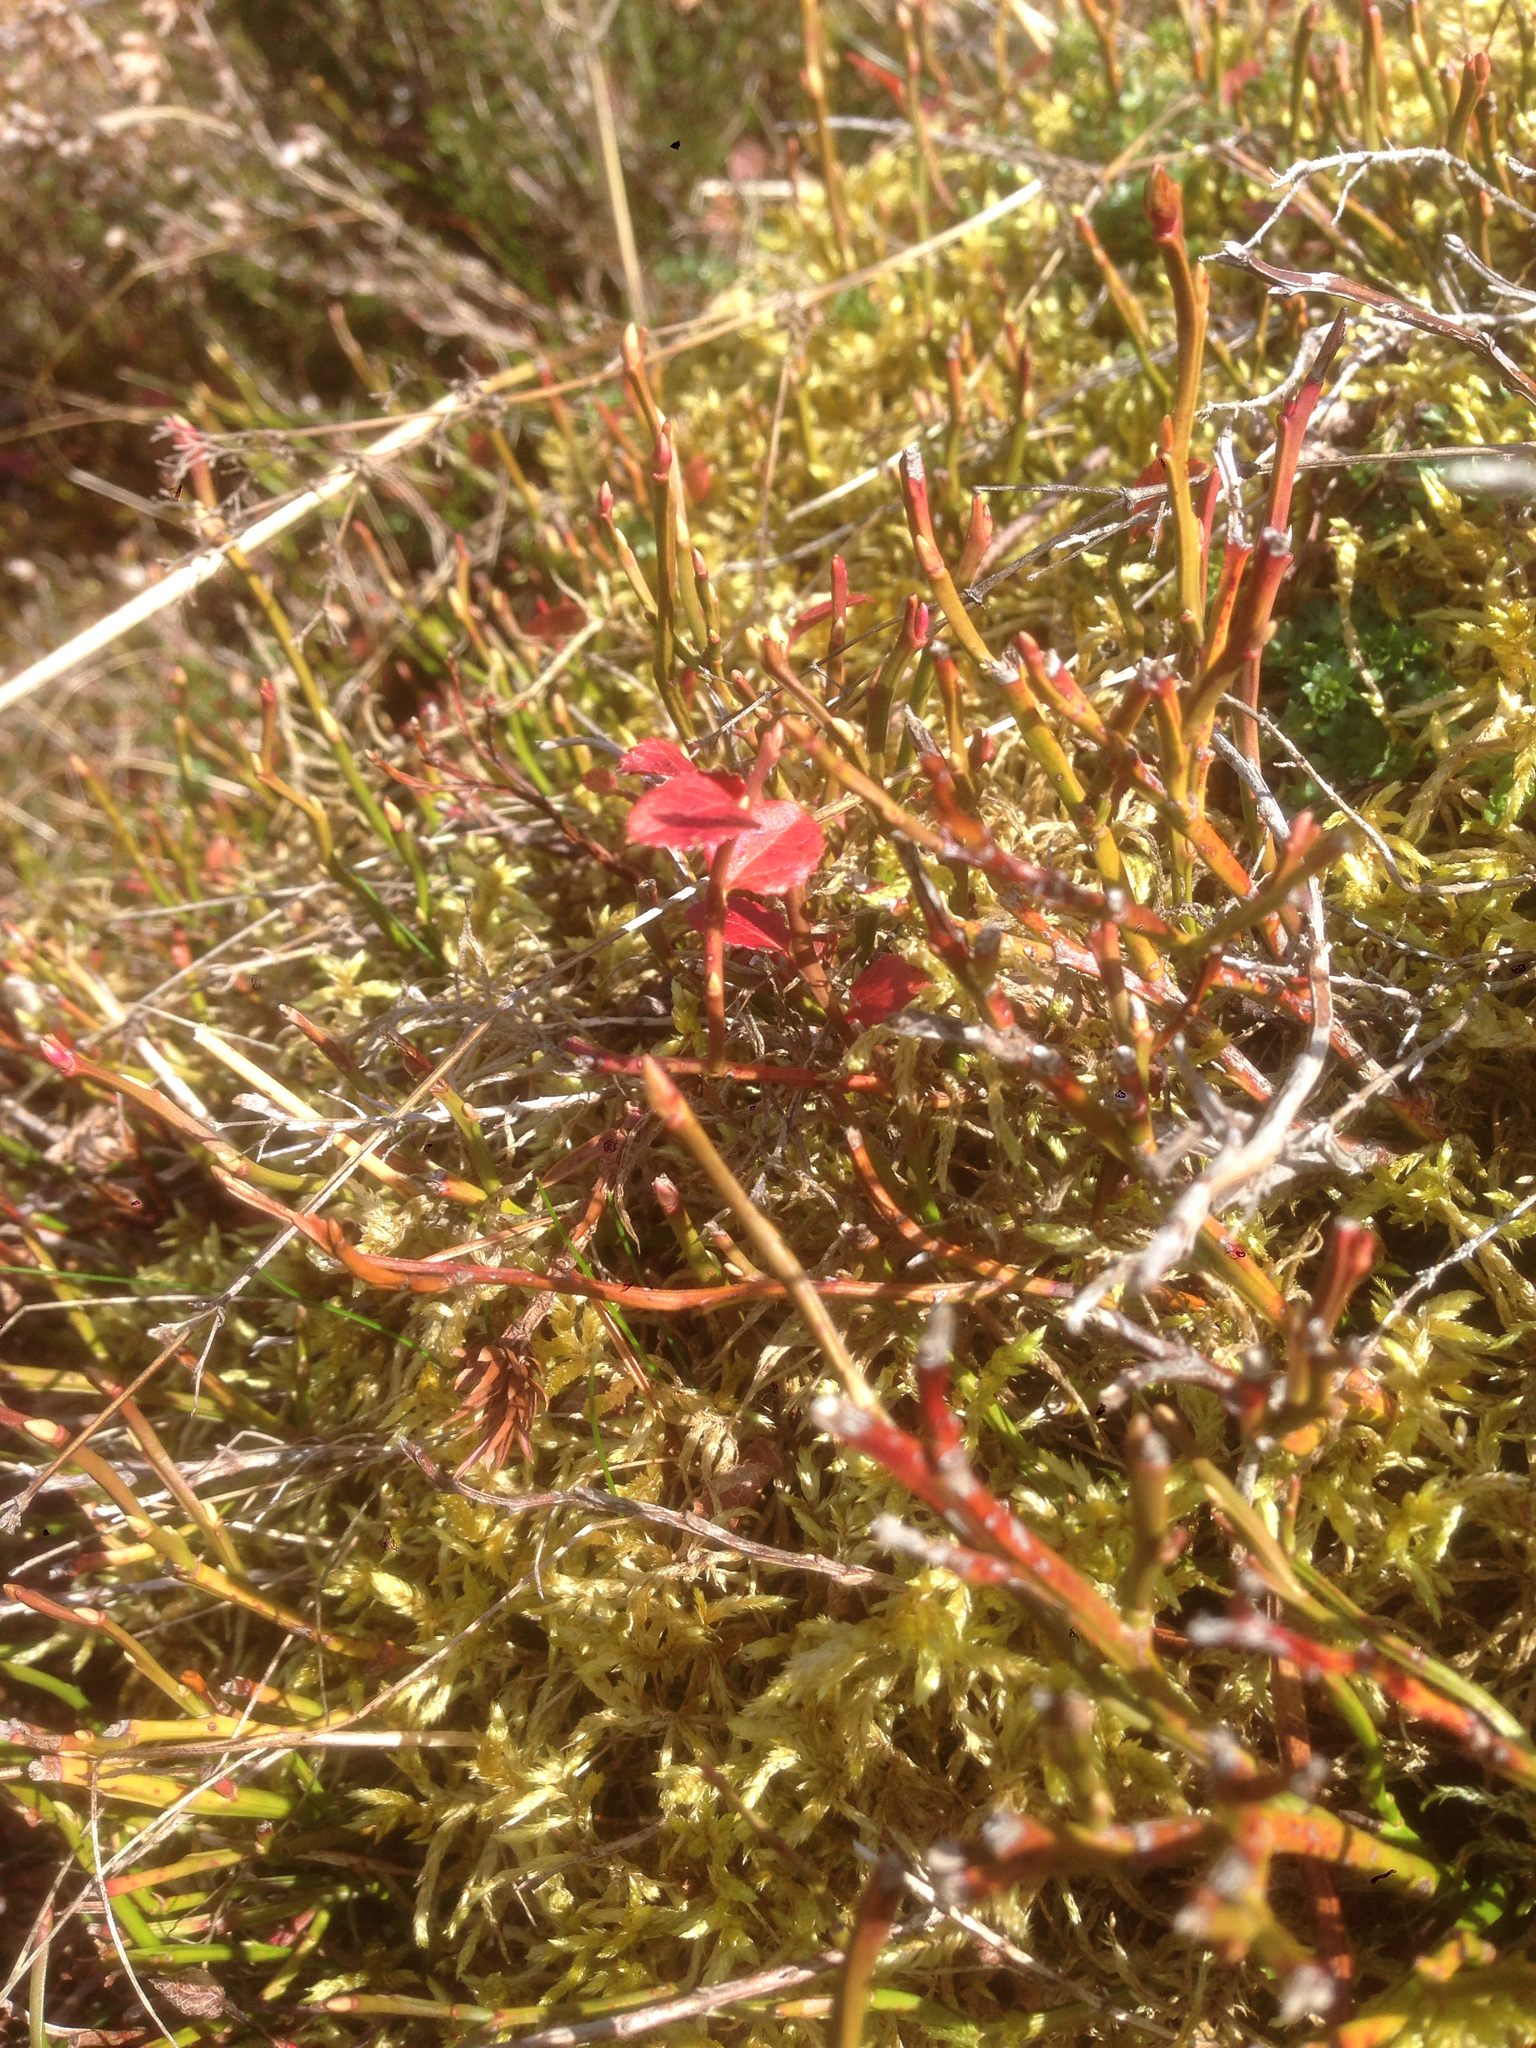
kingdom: Plantae
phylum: Tracheophyta
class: Magnoliopsida
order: Ericales
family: Ericaceae
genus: Vaccinium
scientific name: Vaccinium myrtillus
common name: Bilberry
